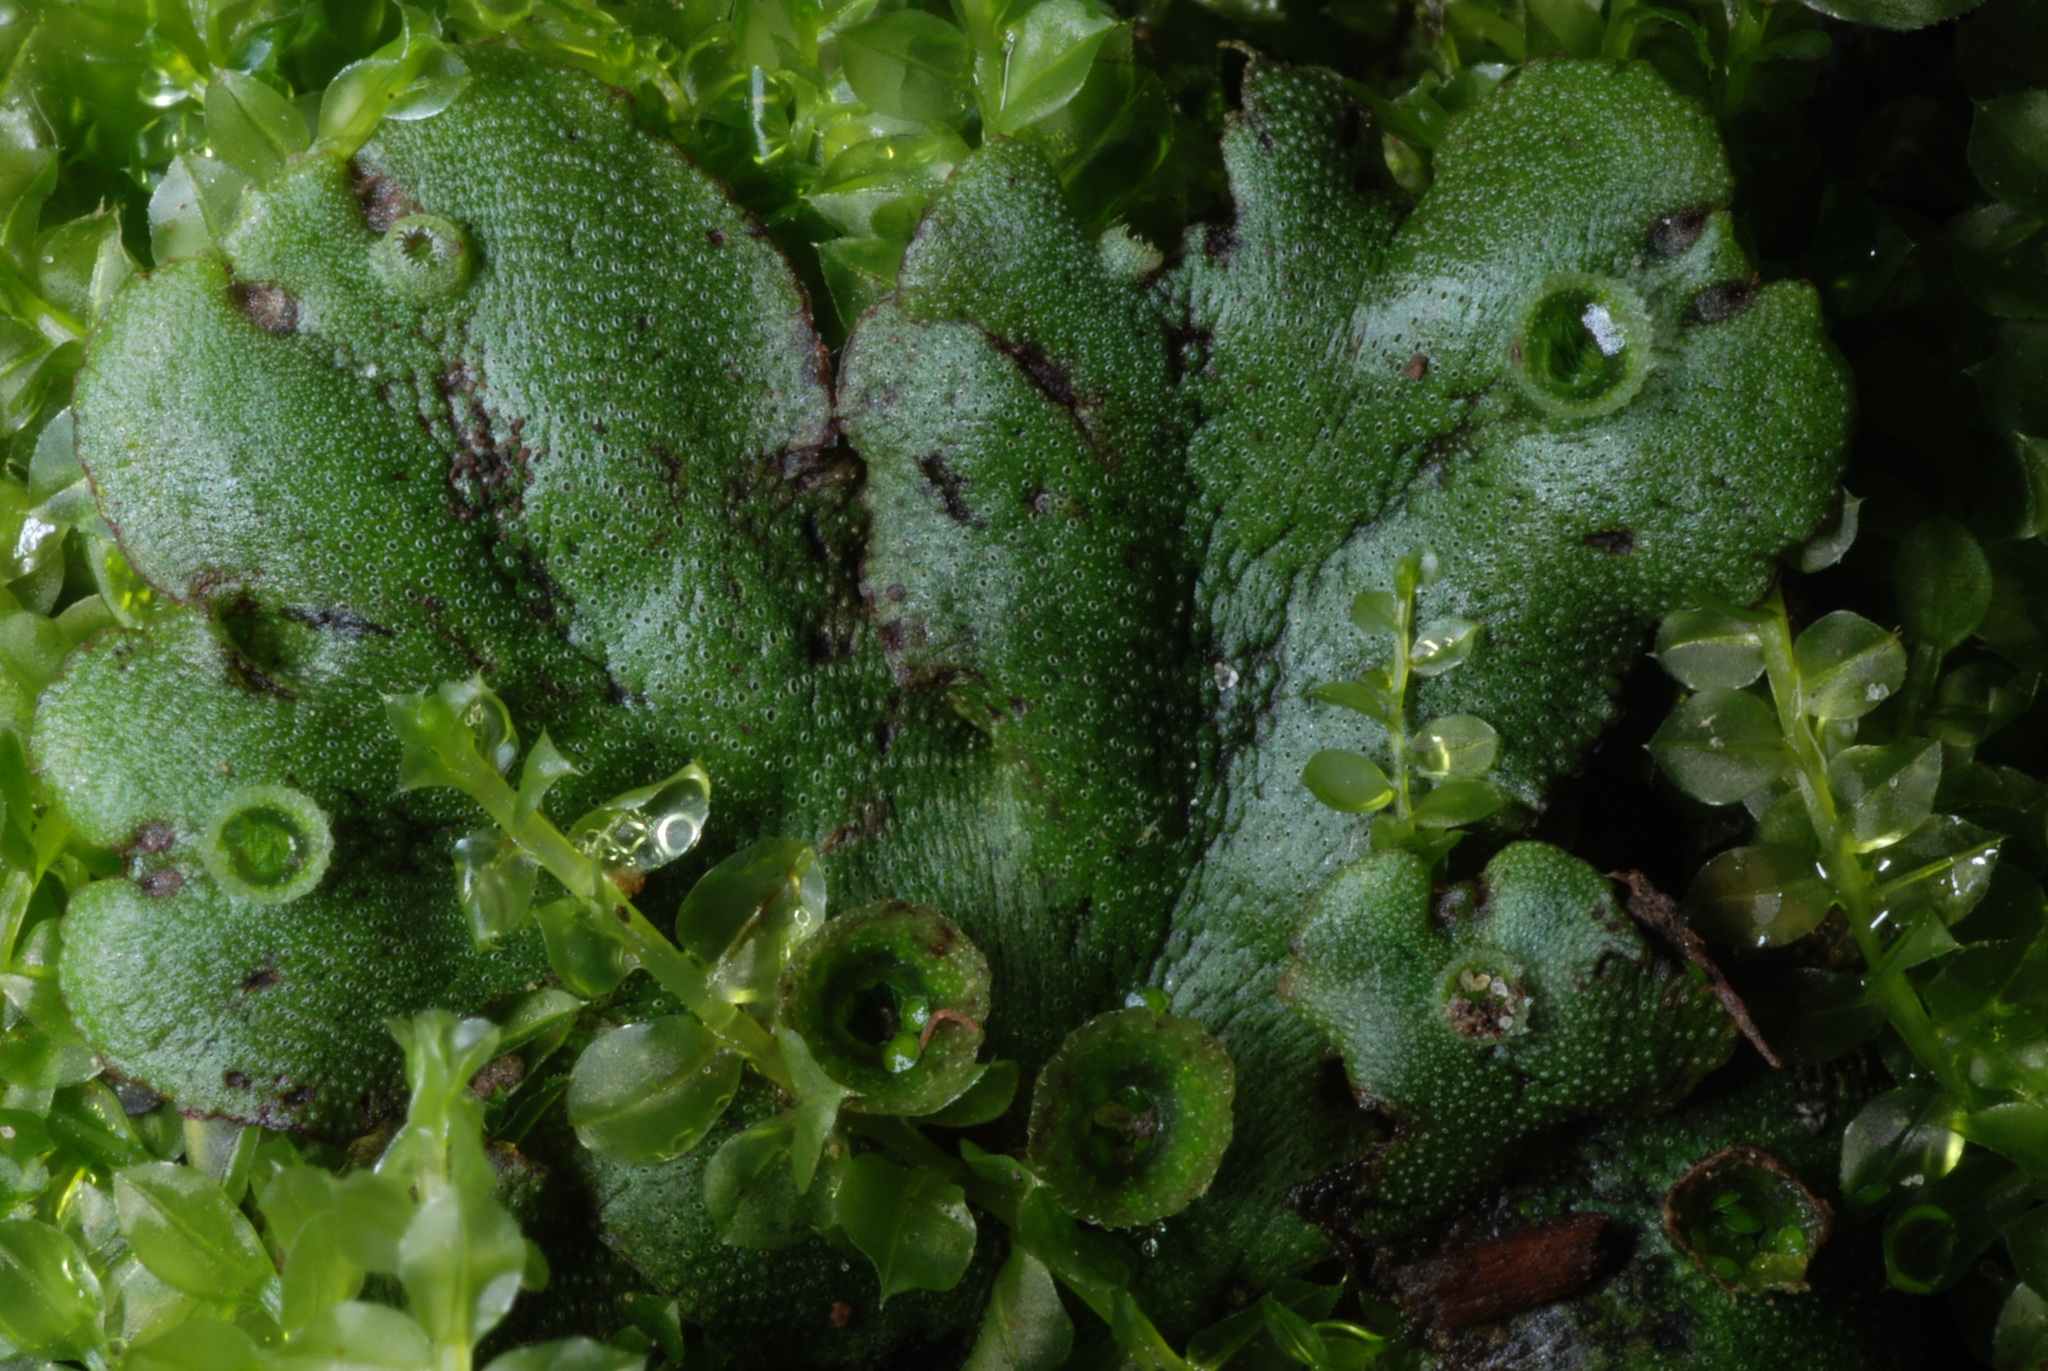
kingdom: Plantae
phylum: Marchantiophyta
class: Marchantiopsida
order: Marchantiales
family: Marchantiaceae
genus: Marchantia
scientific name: Marchantia polymorpha
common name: Common liverwort
